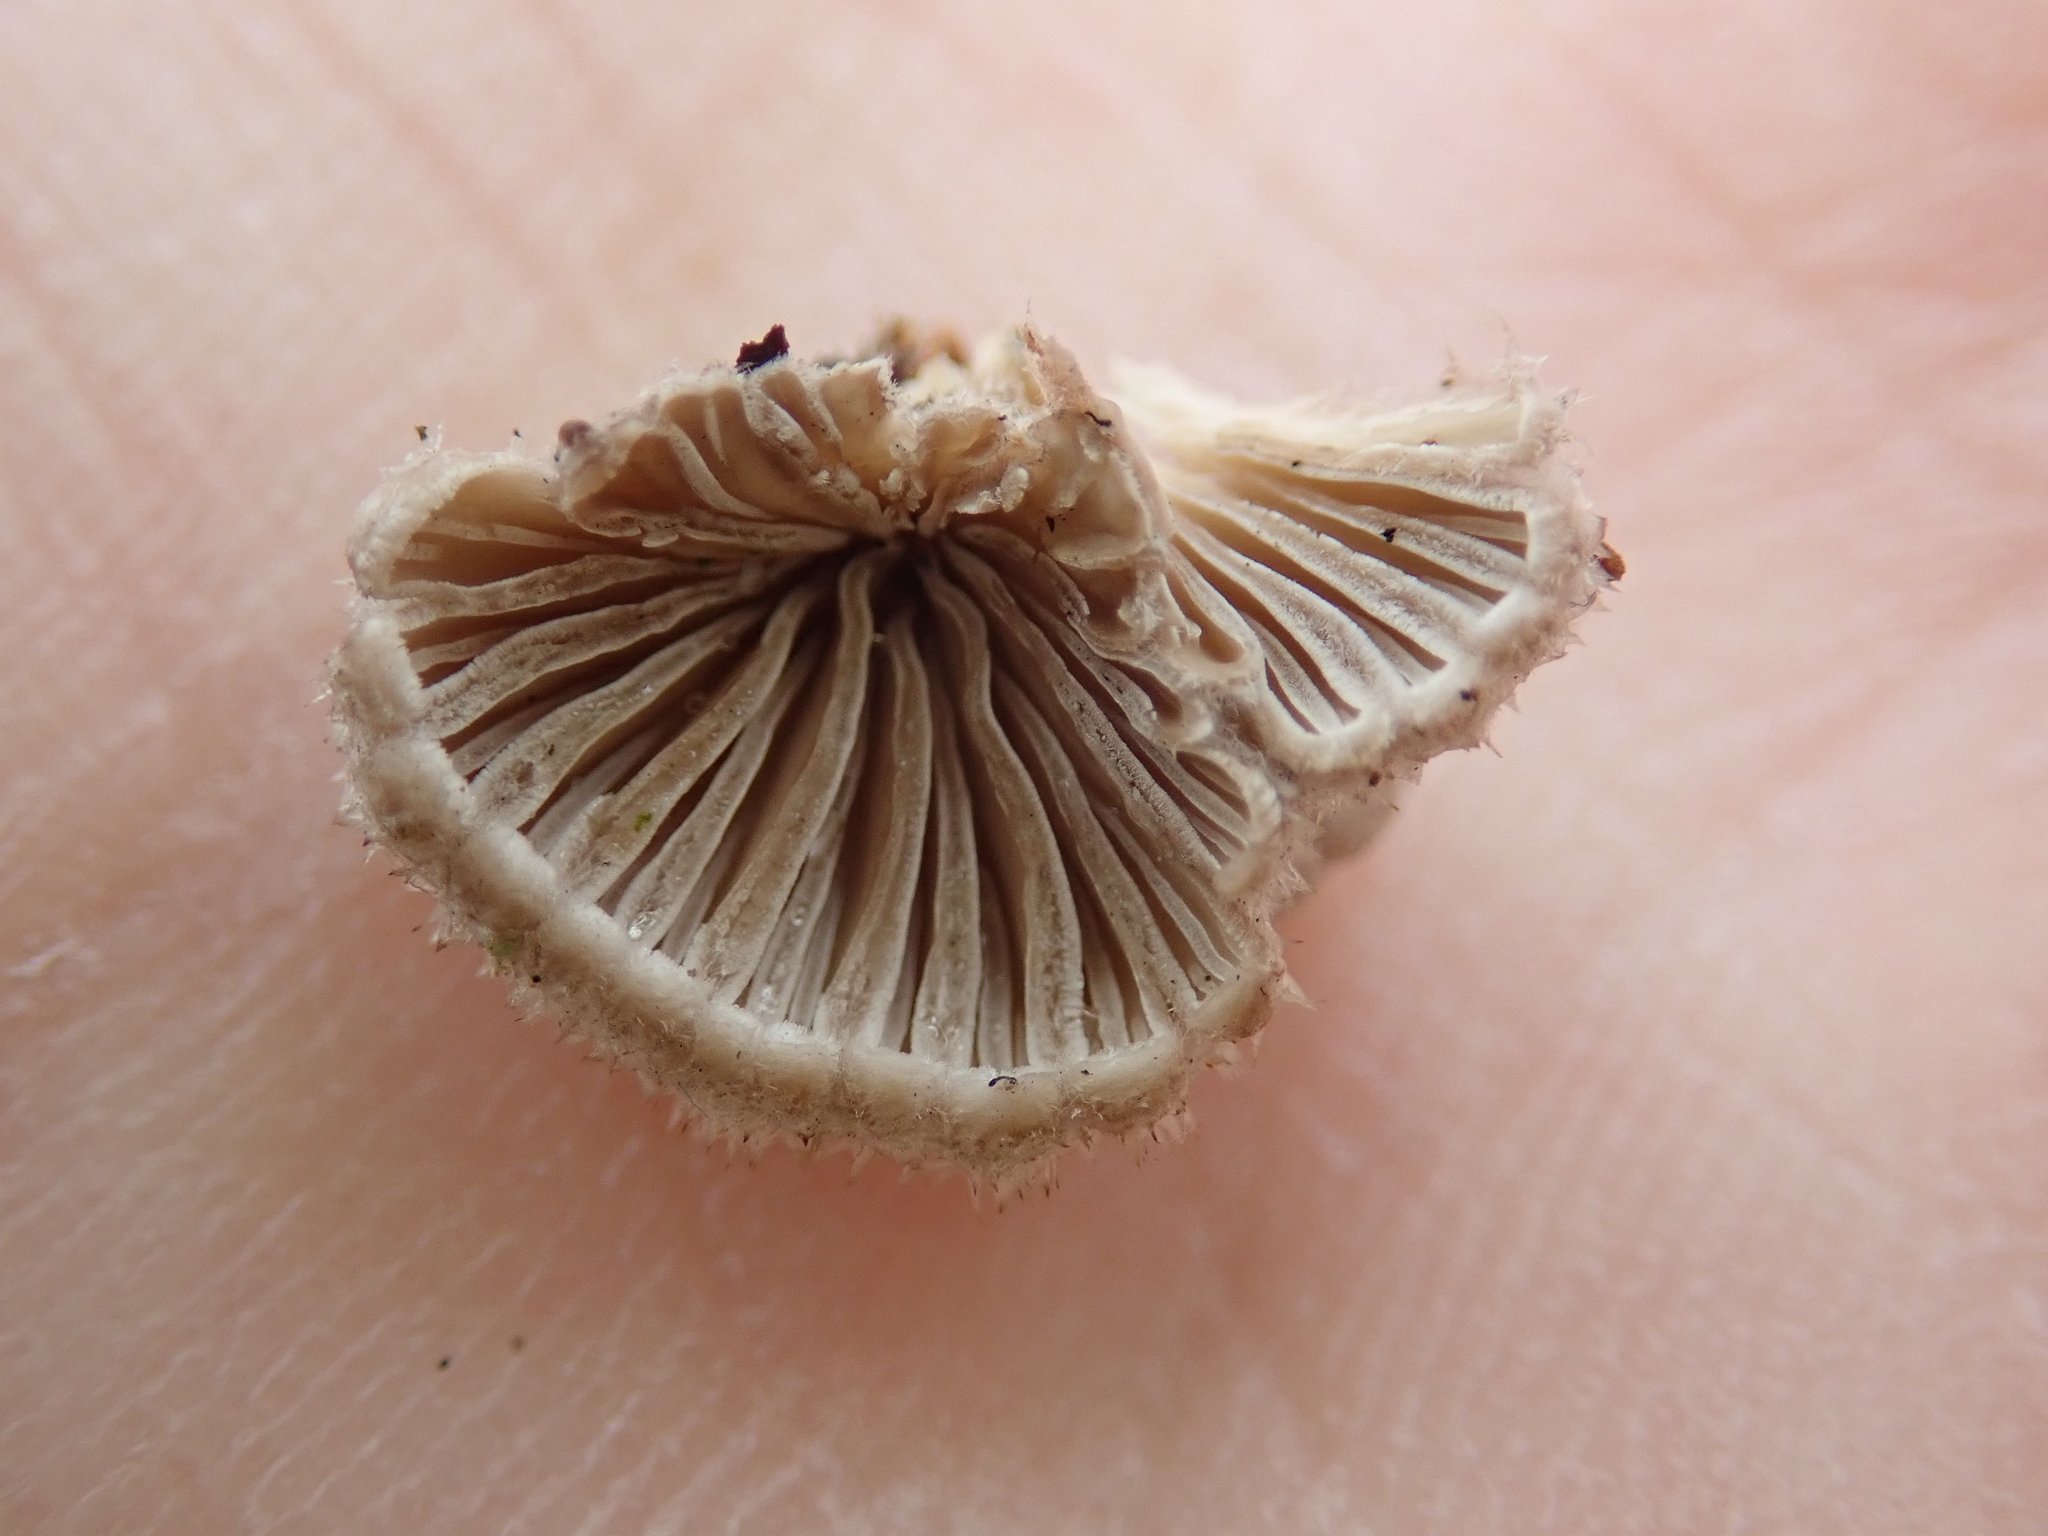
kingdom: Fungi
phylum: Basidiomycota
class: Agaricomycetes
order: Agaricales
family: Schizophyllaceae
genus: Schizophyllum
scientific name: Schizophyllum commune
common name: Common porecrust
